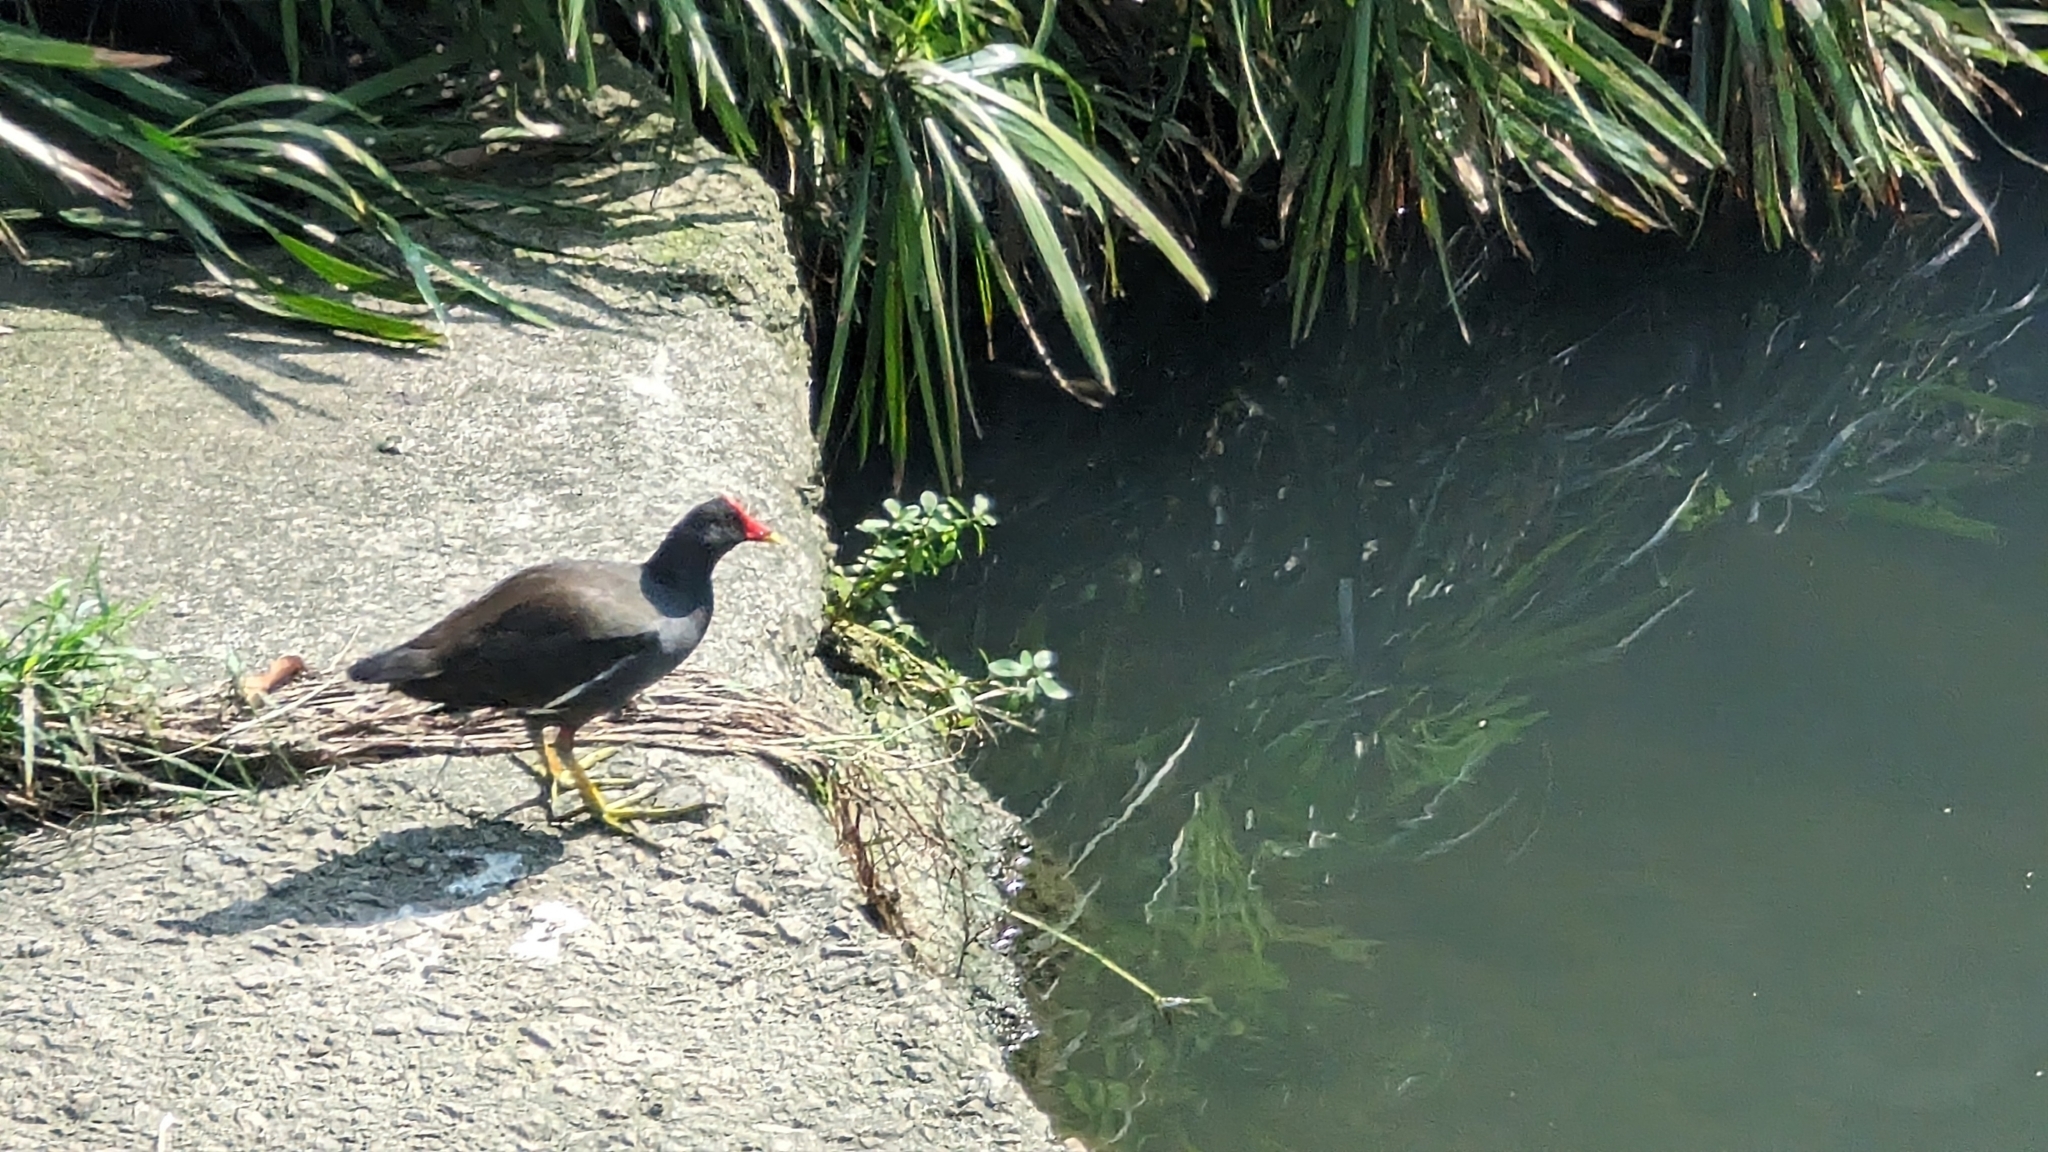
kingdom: Animalia
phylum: Chordata
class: Aves
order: Gruiformes
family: Rallidae
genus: Gallinula
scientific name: Gallinula chloropus
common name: Common moorhen
